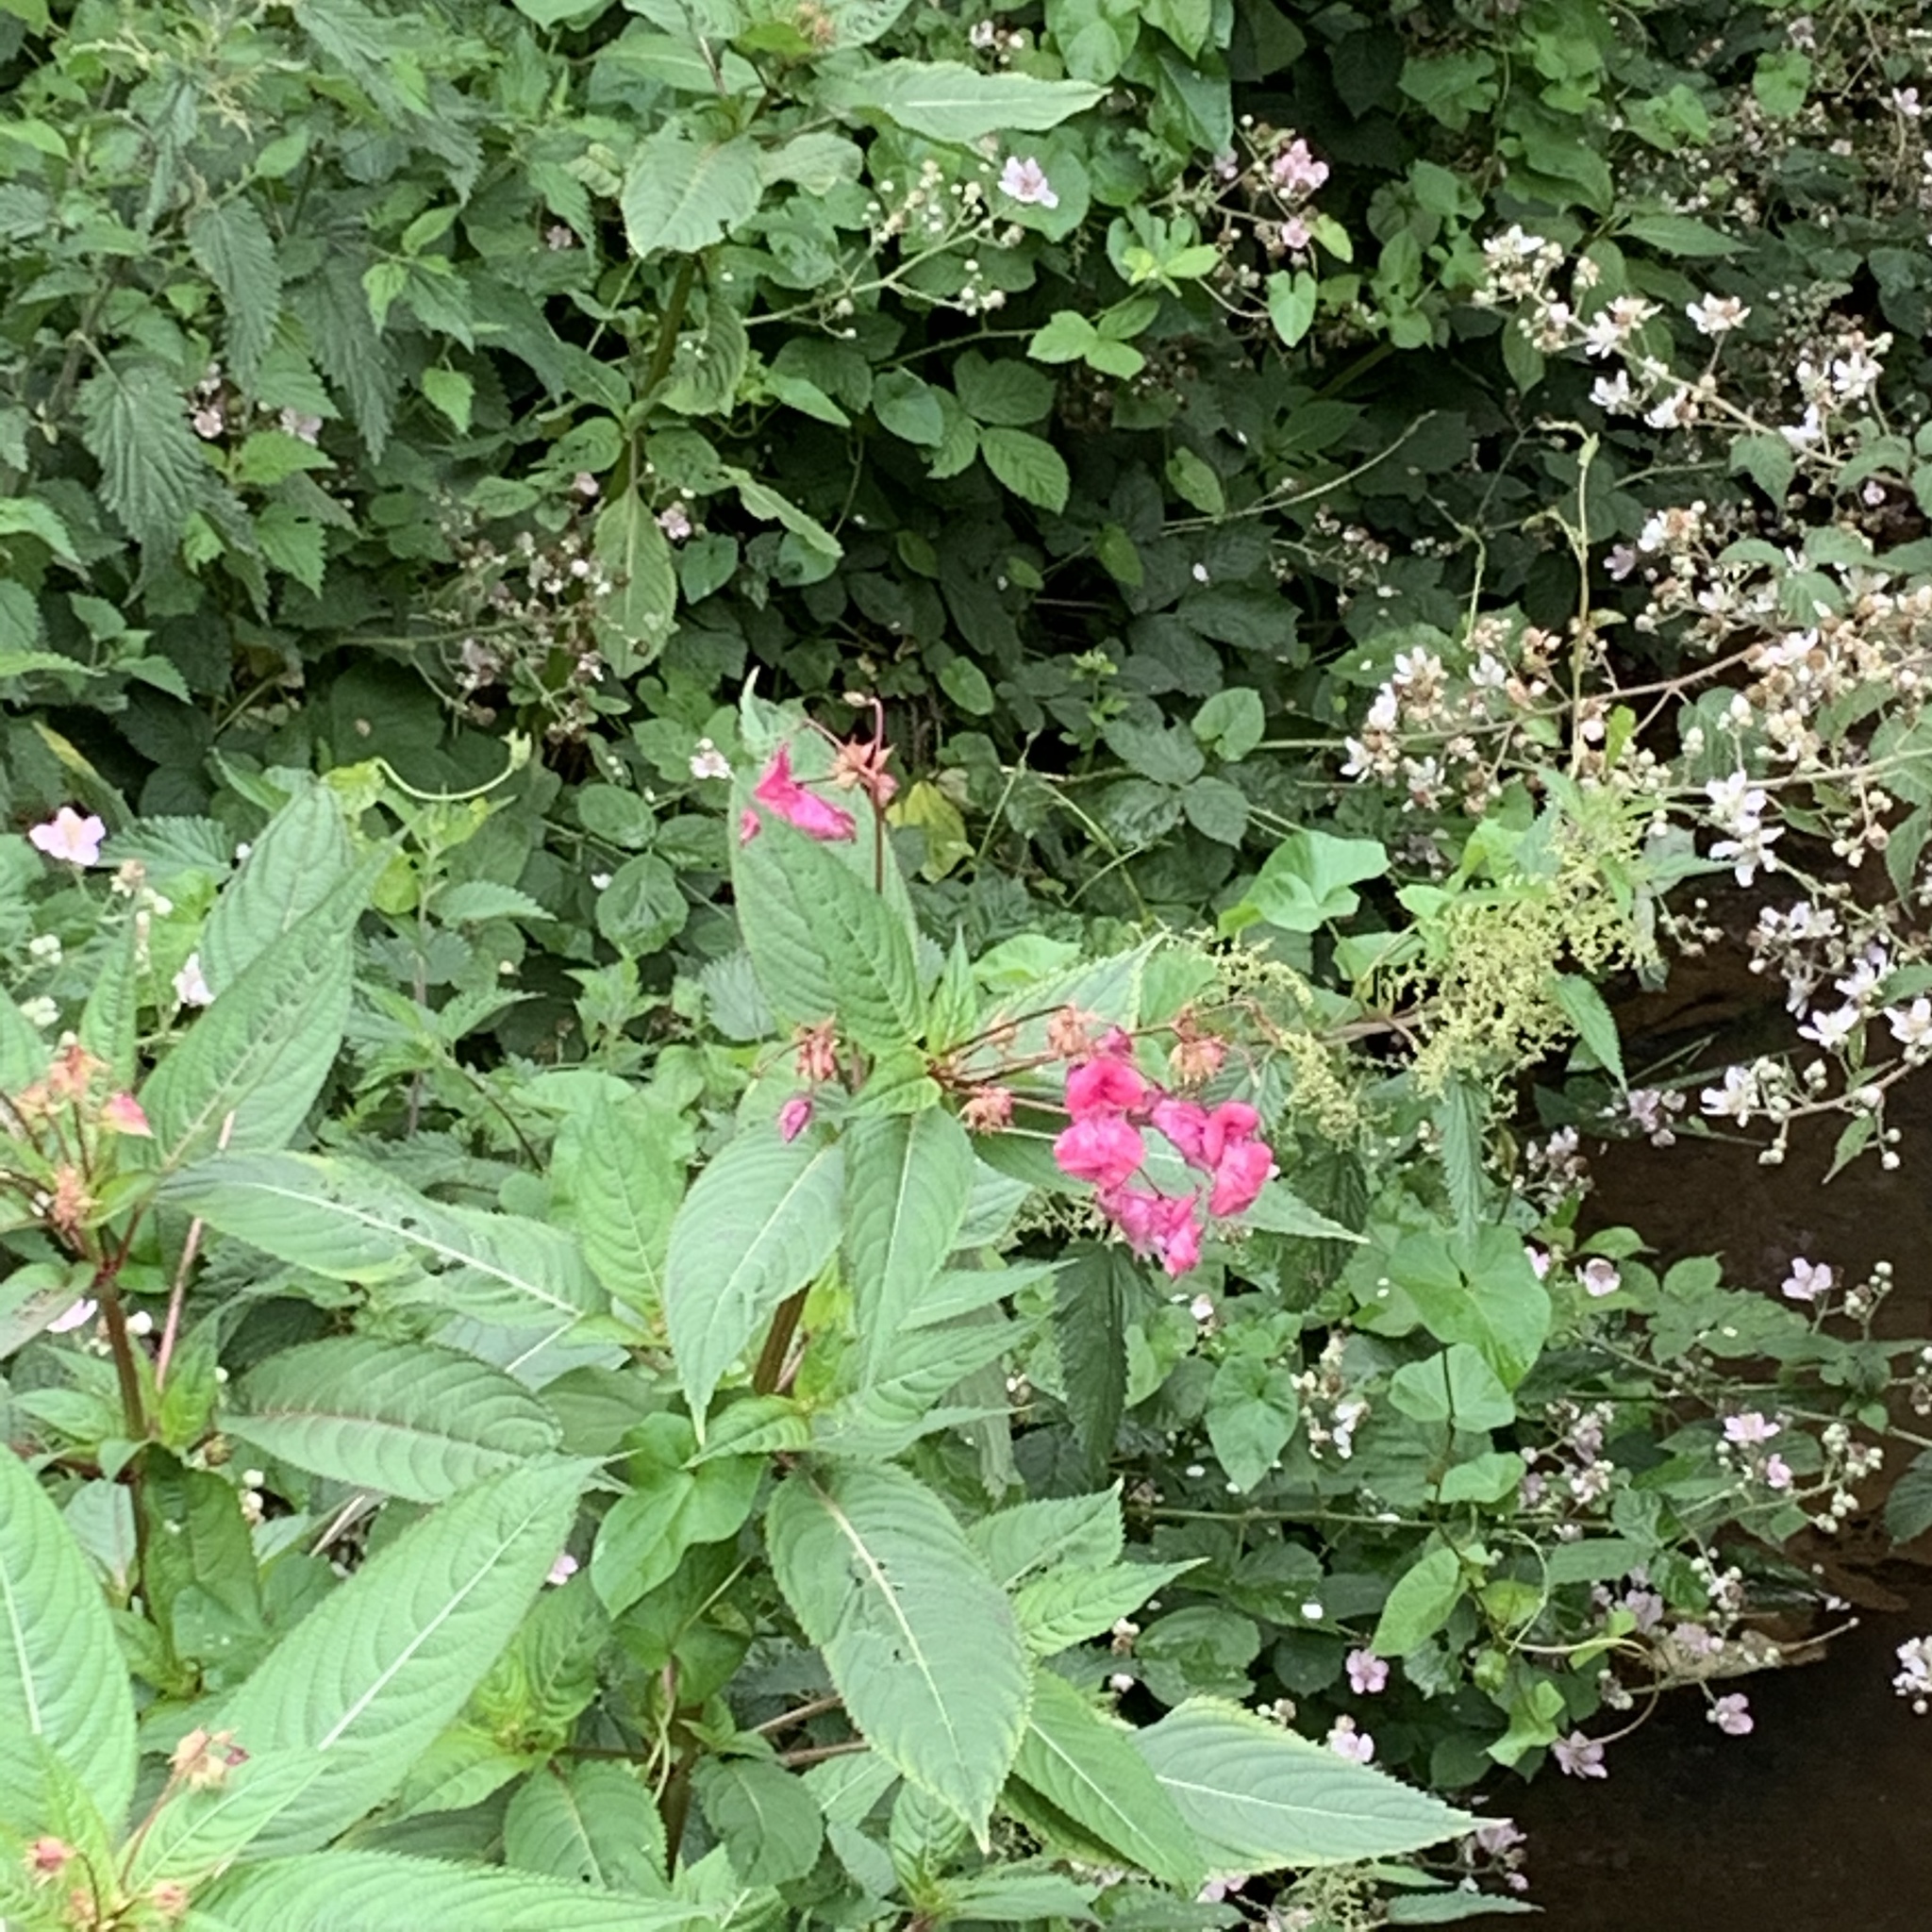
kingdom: Plantae
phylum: Tracheophyta
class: Magnoliopsida
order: Ericales
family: Balsaminaceae
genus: Impatiens
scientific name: Impatiens glandulifera
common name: Himalayan balsam
